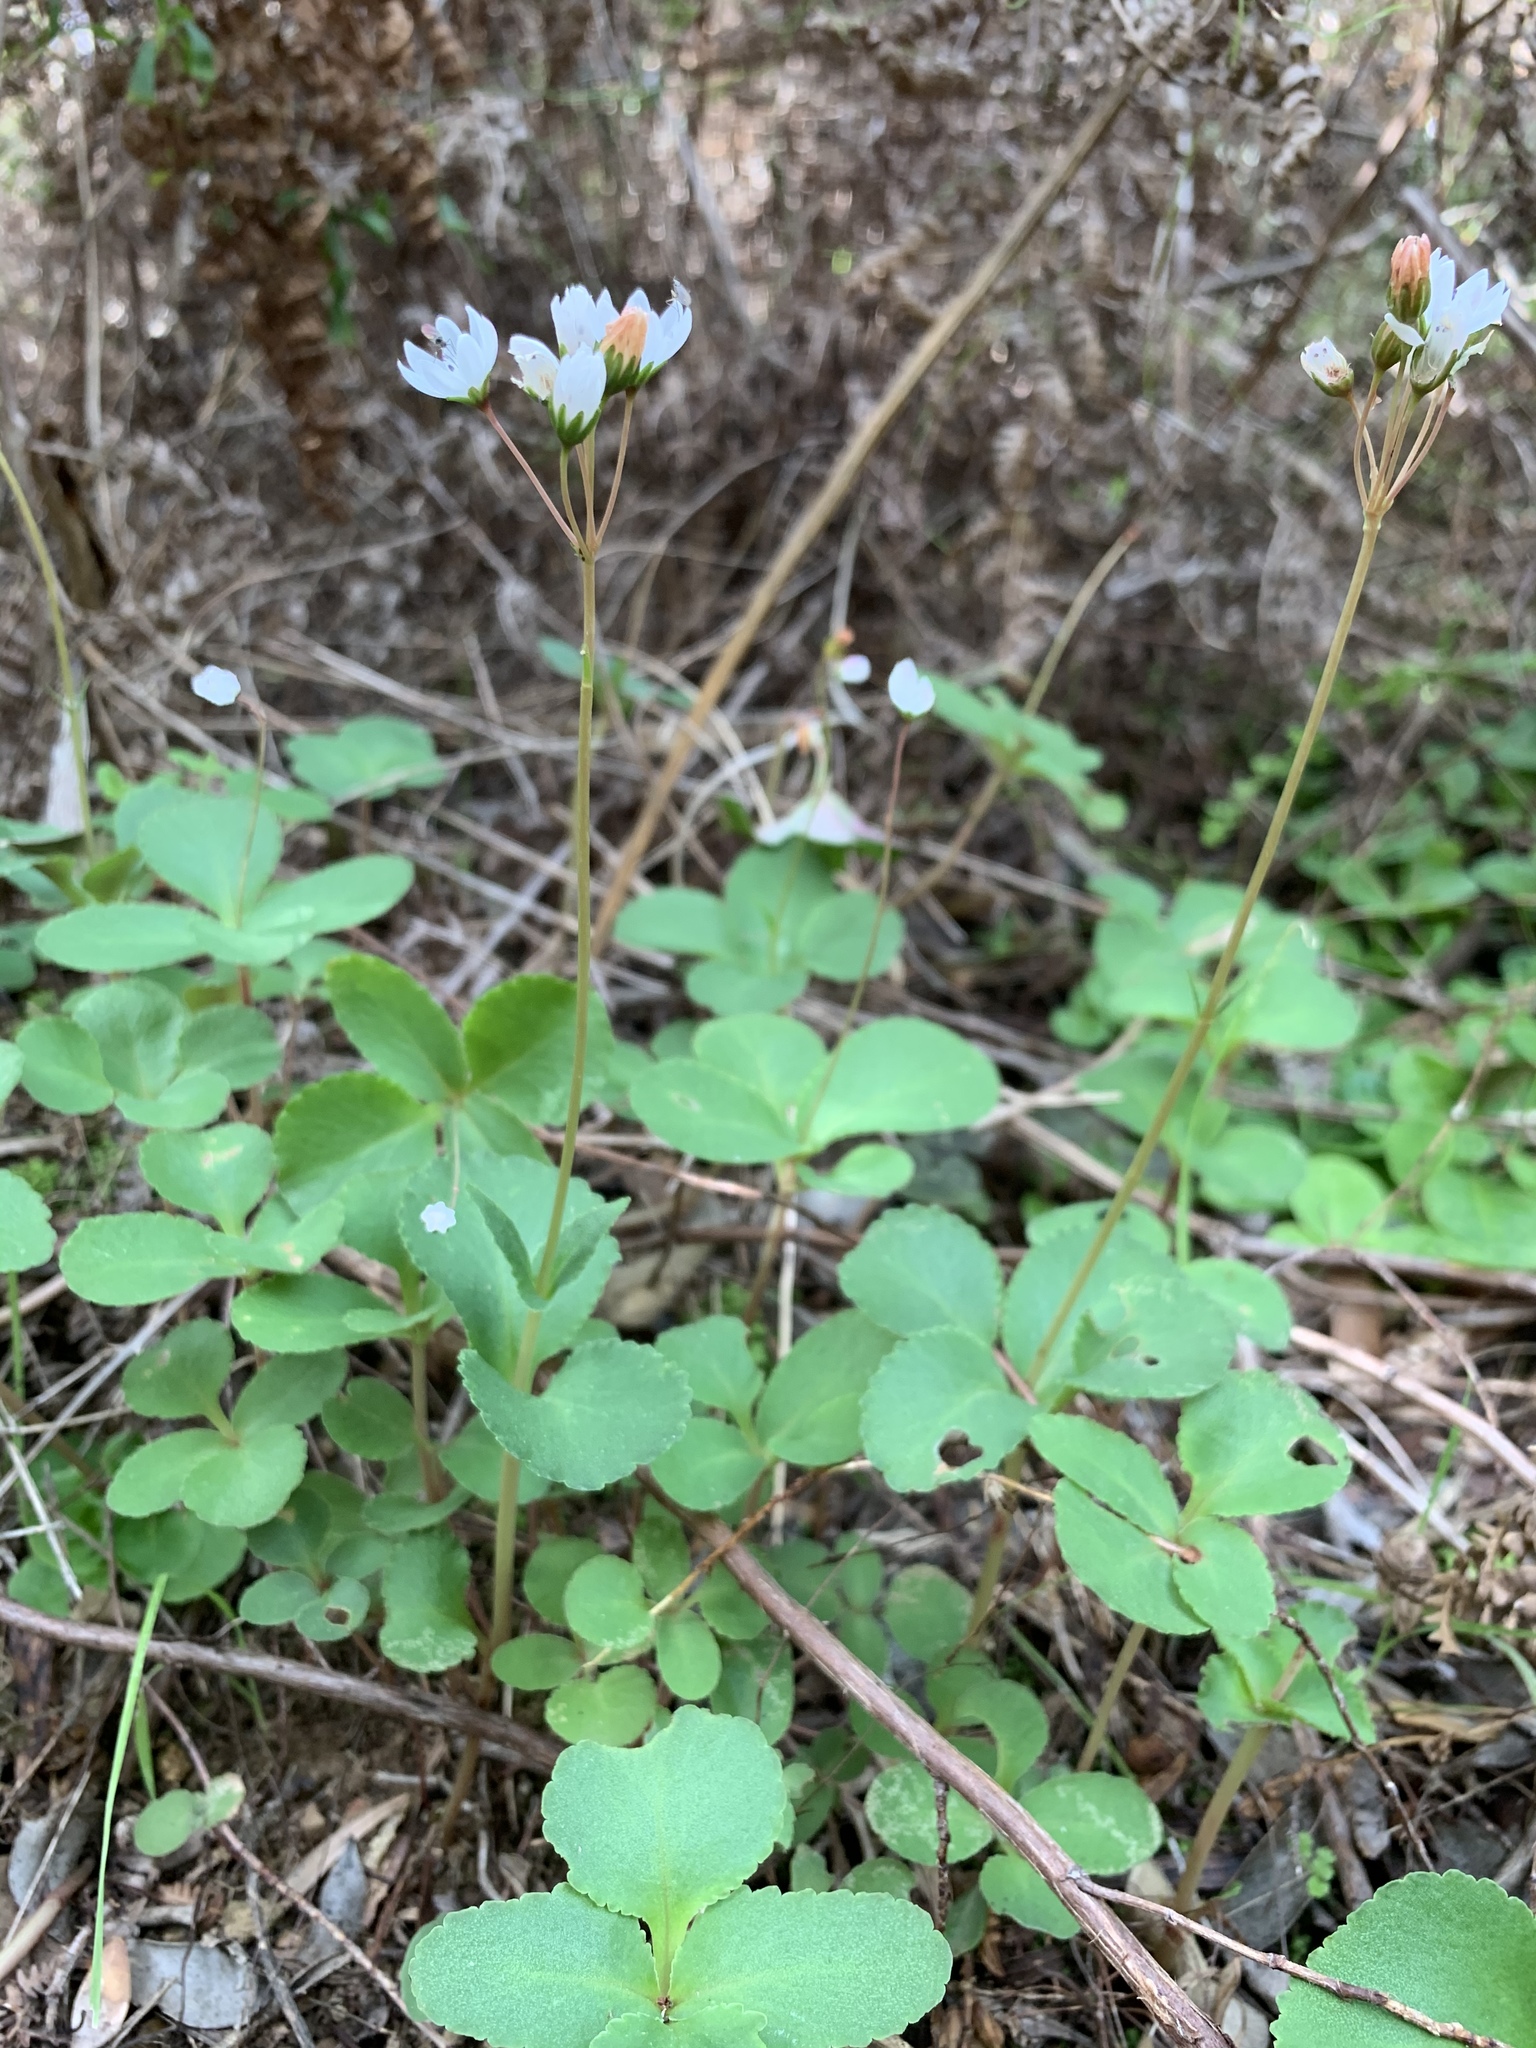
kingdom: Plantae
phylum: Tracheophyta
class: Magnoliopsida
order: Saxifragales
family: Crassulaceae
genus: Crassula
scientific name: Crassula capensis
